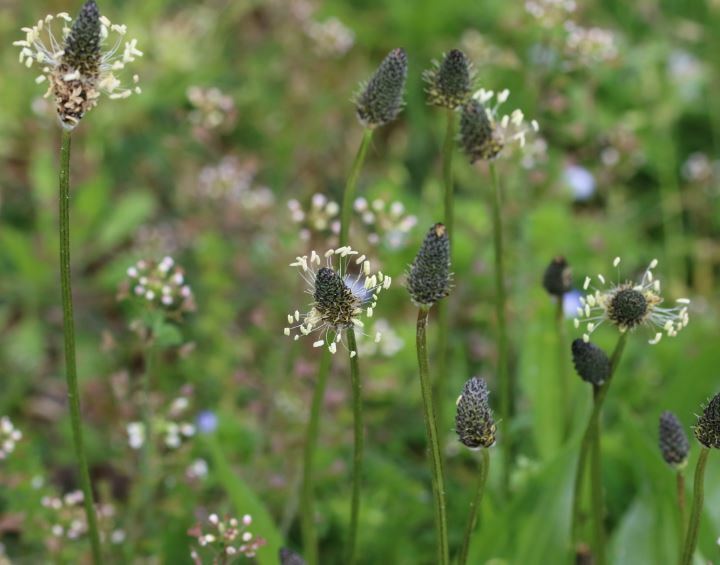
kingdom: Plantae
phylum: Tracheophyta
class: Magnoliopsida
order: Lamiales
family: Plantaginaceae
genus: Plantago
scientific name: Plantago lanceolata
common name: Ribwort plantain
